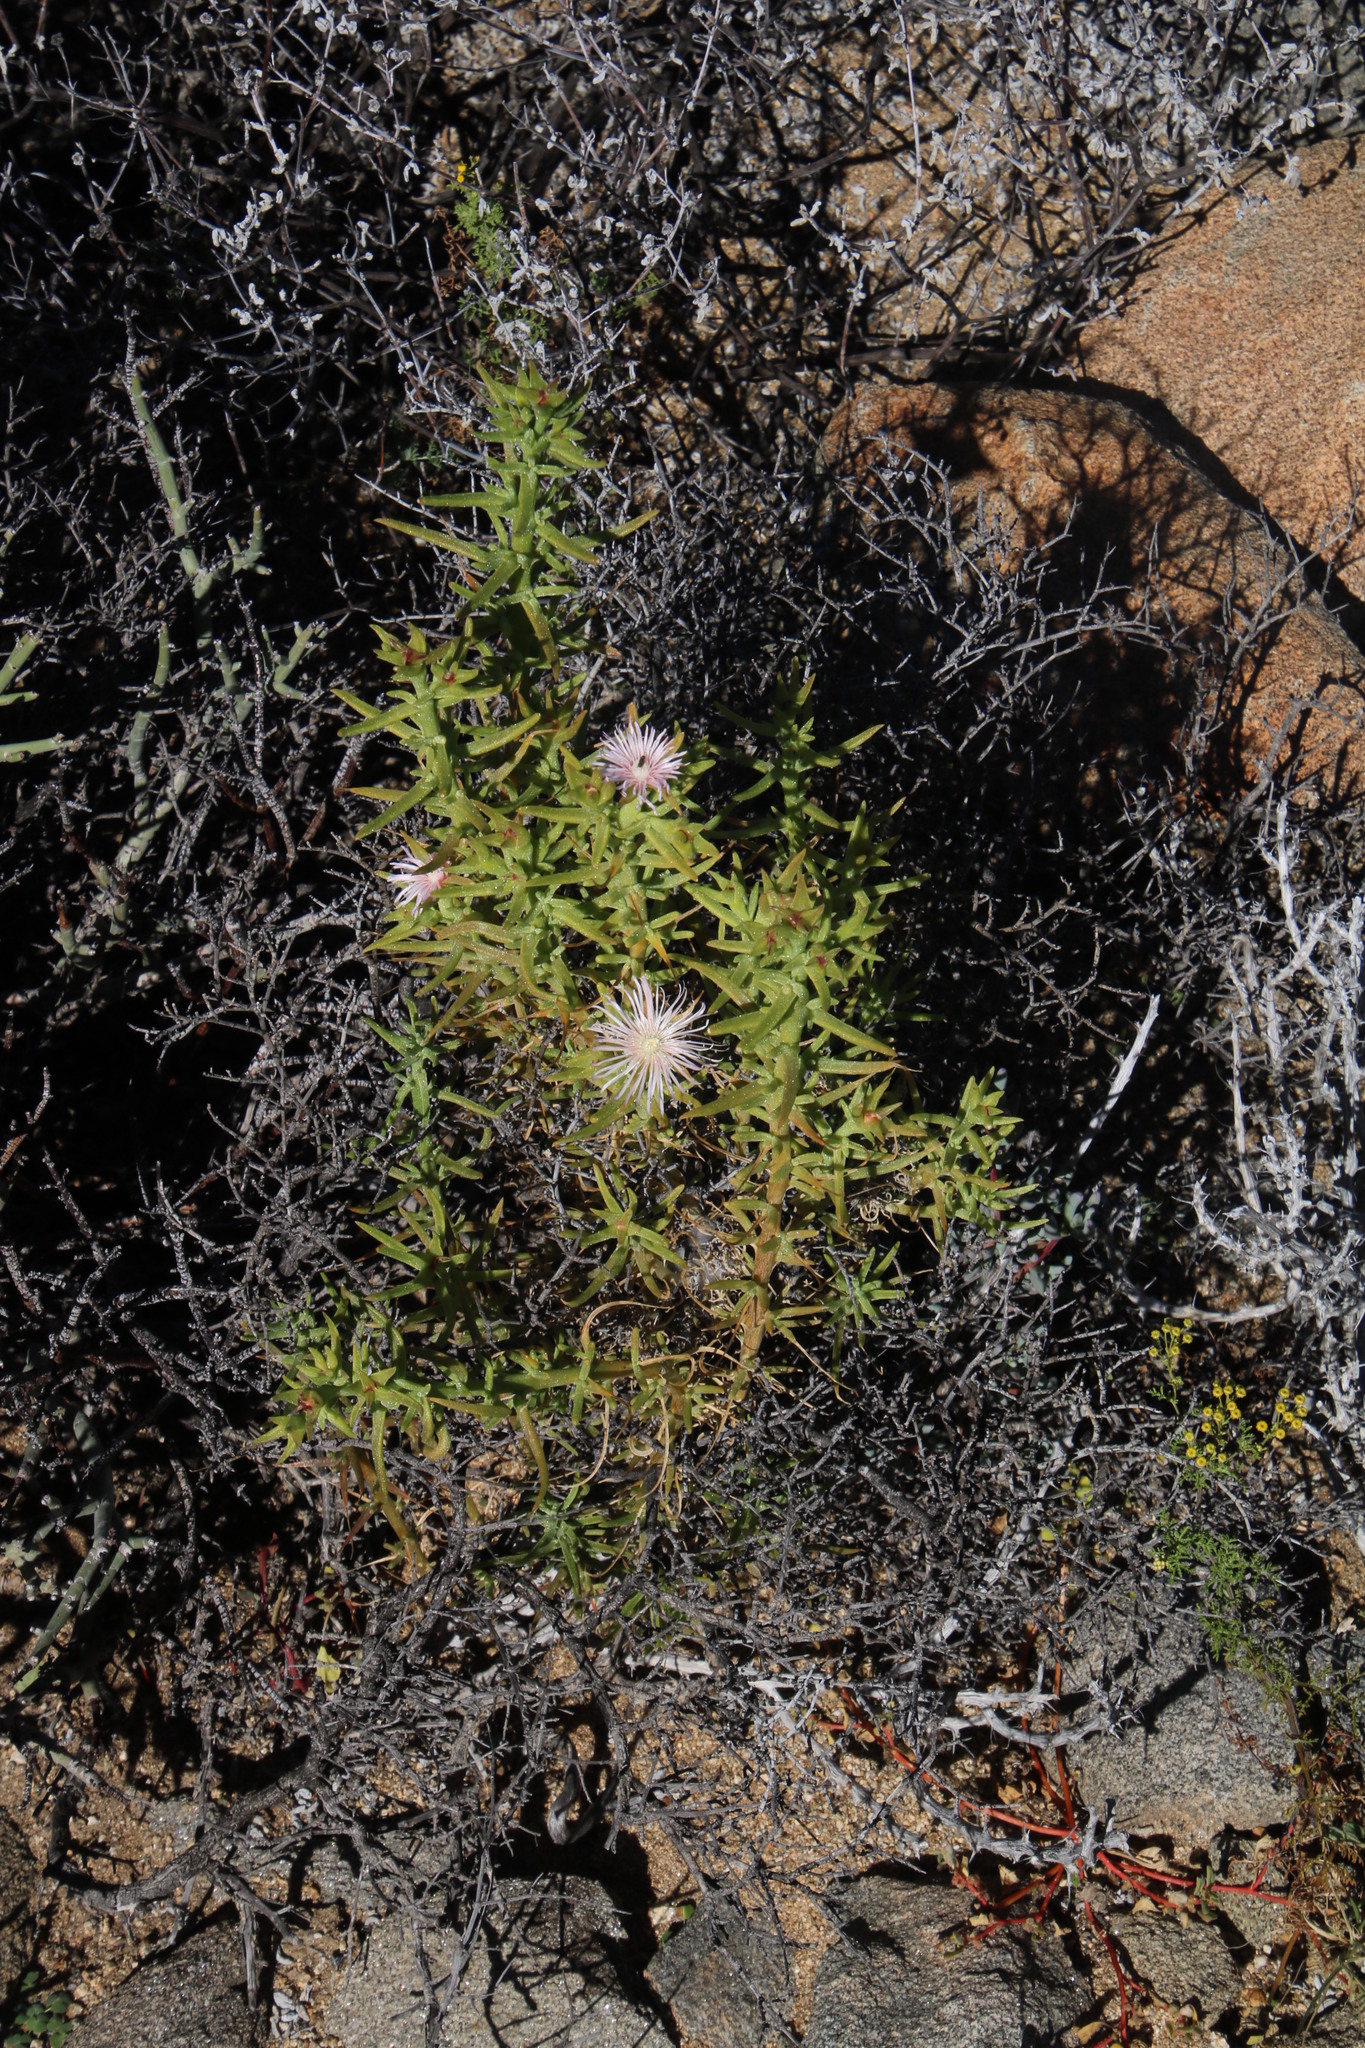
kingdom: Plantae
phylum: Tracheophyta
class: Magnoliopsida
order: Caryophyllales
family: Aizoaceae
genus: Mesembryanthemum
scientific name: Mesembryanthemum vanheerdei
